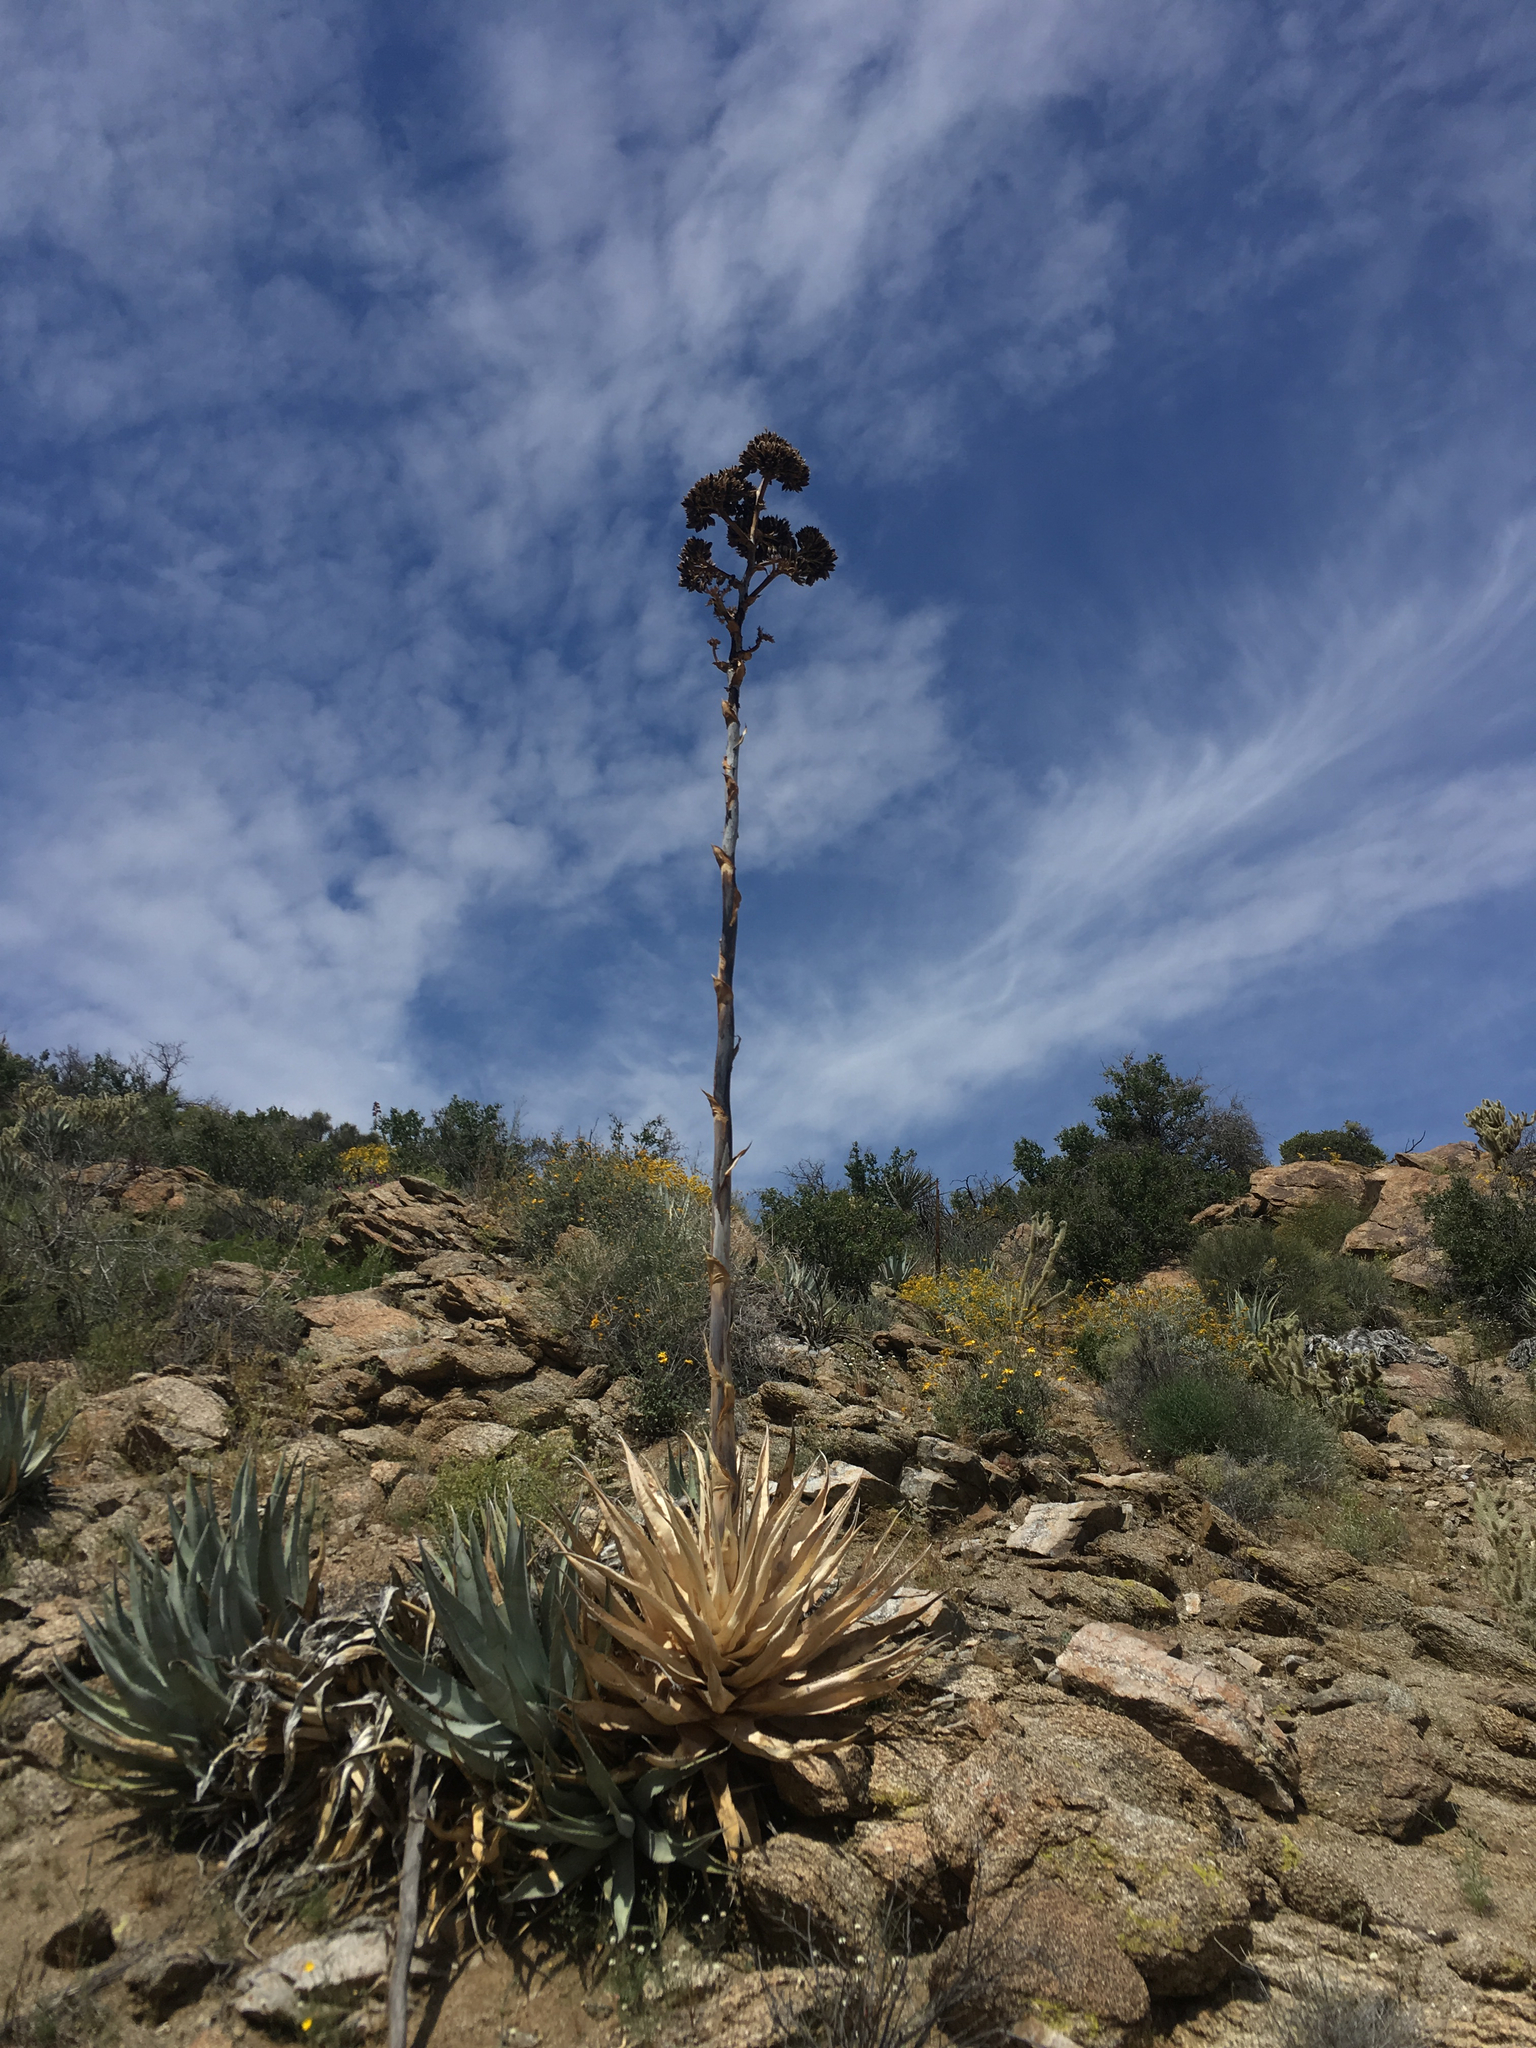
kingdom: Plantae
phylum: Tracheophyta
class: Liliopsida
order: Asparagales
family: Asparagaceae
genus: Agave
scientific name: Agave deserti
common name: Desert agave
